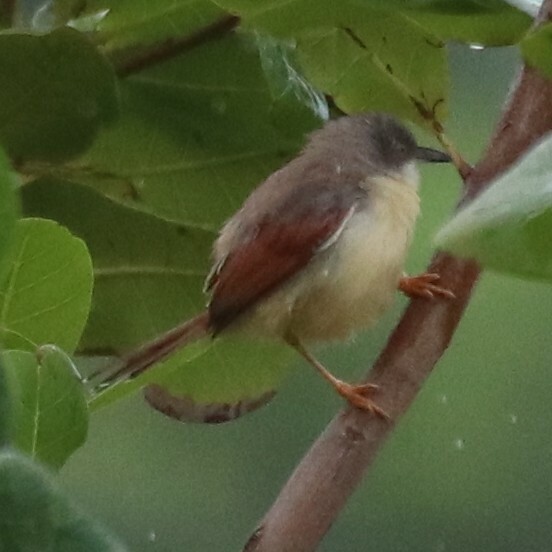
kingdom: Animalia
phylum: Chordata
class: Aves
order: Passeriformes
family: Cisticolidae
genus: Heliolais
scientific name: Heliolais erythropterus
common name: Red-winged warbler
